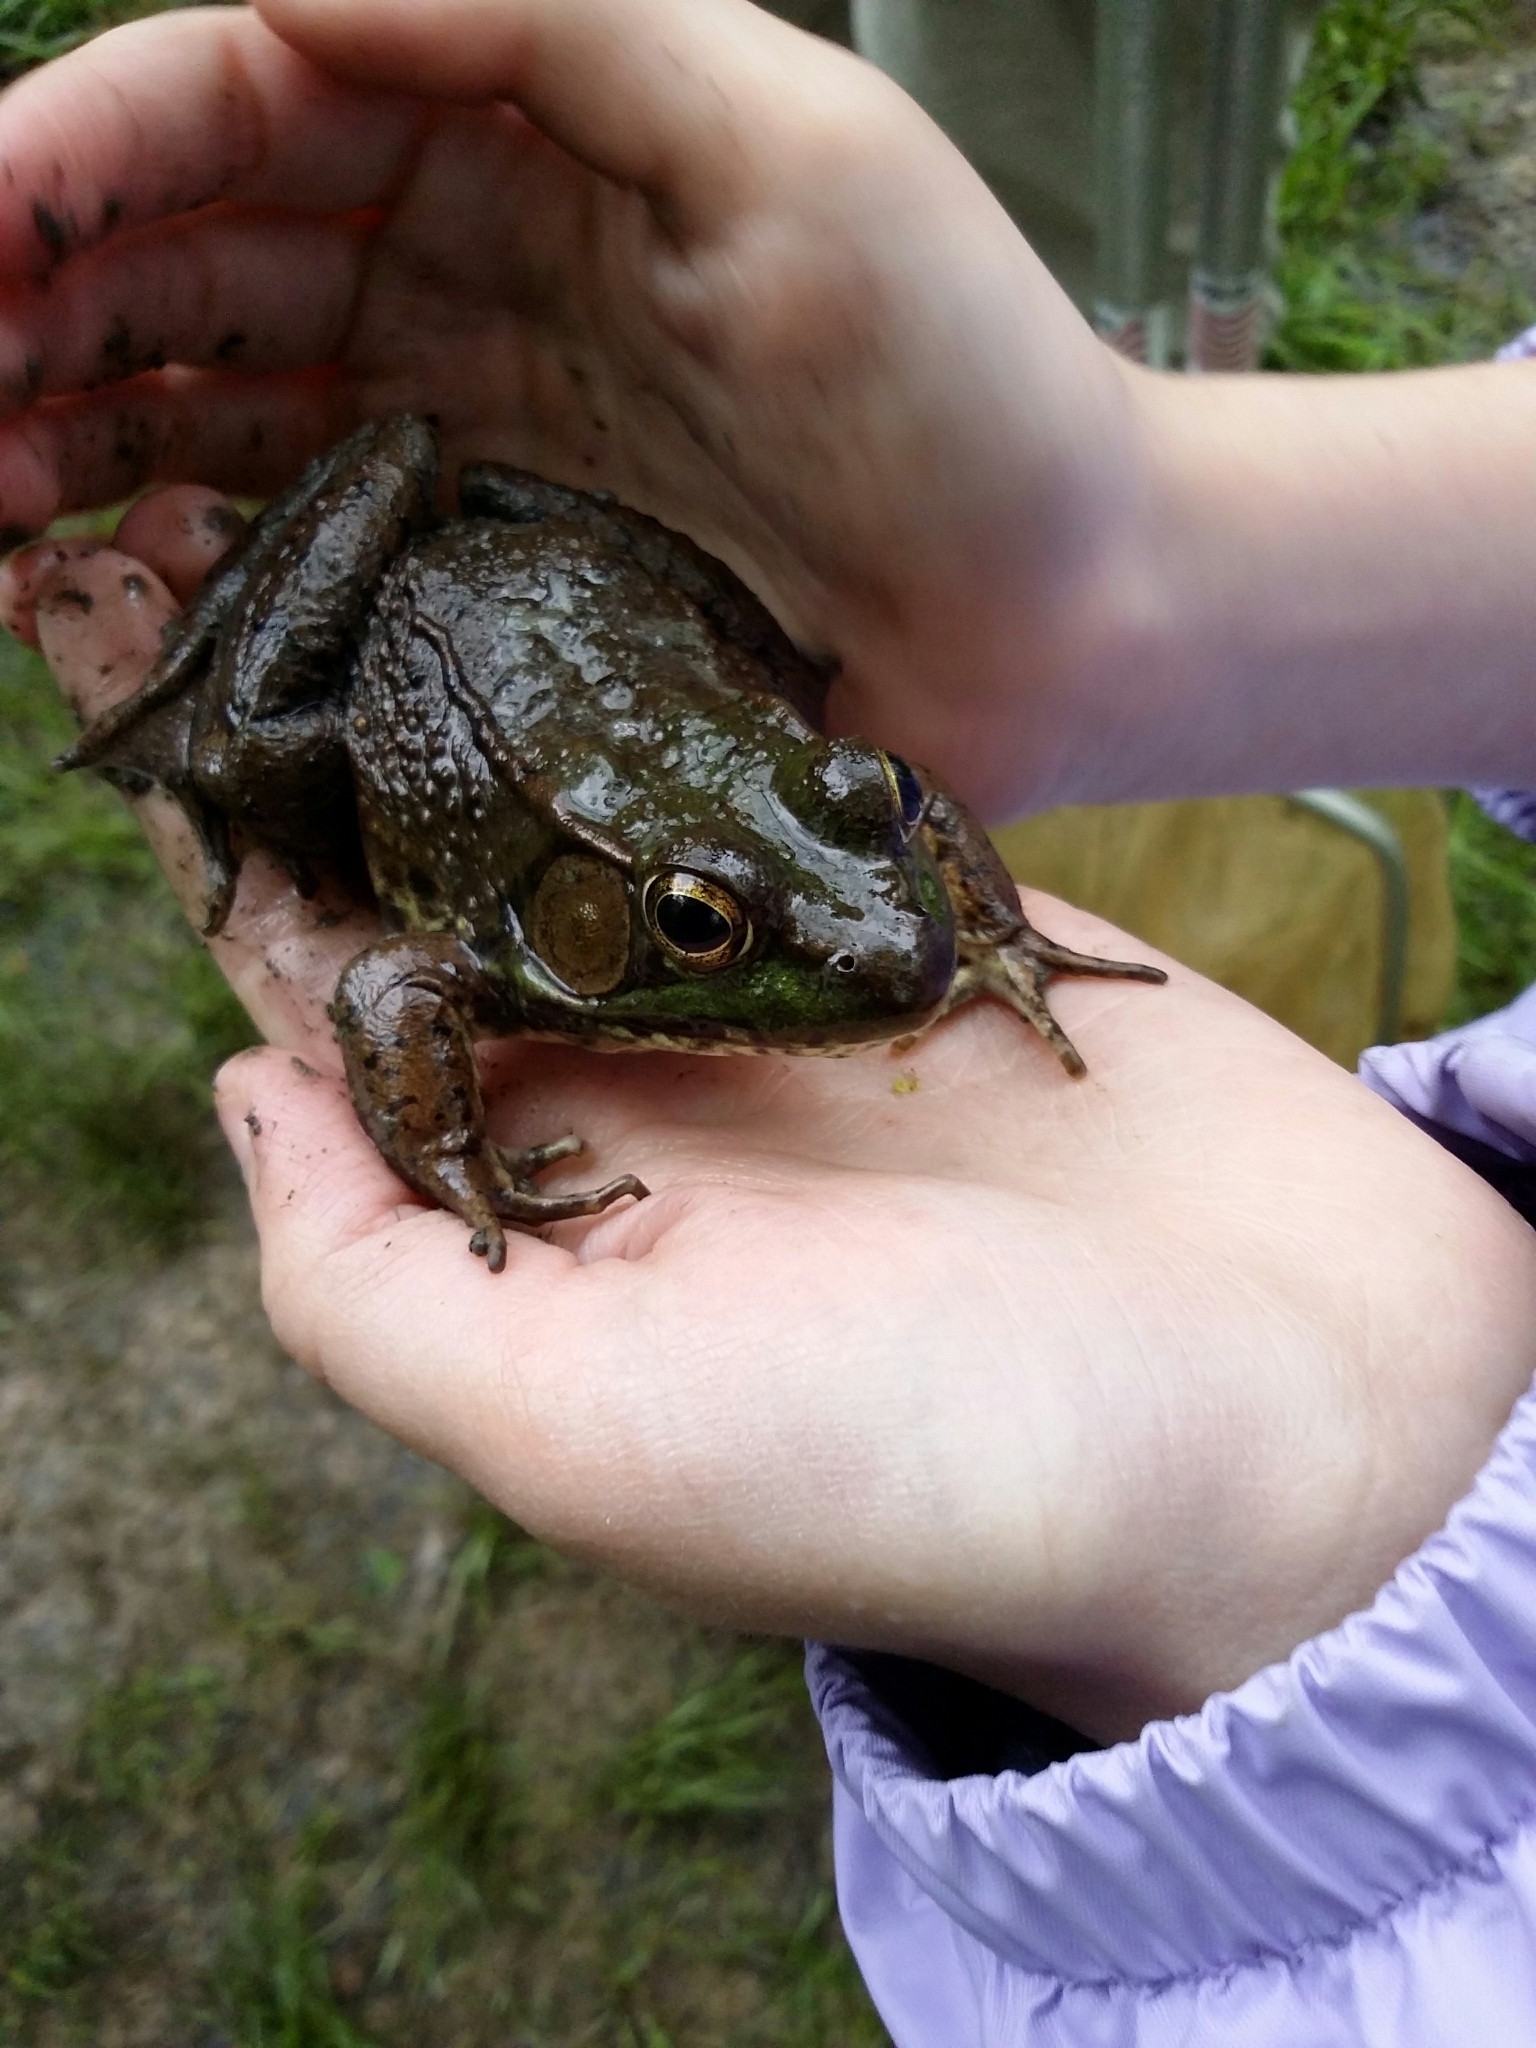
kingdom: Animalia
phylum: Chordata
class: Amphibia
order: Anura
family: Ranidae
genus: Lithobates
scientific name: Lithobates clamitans
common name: Green frog
